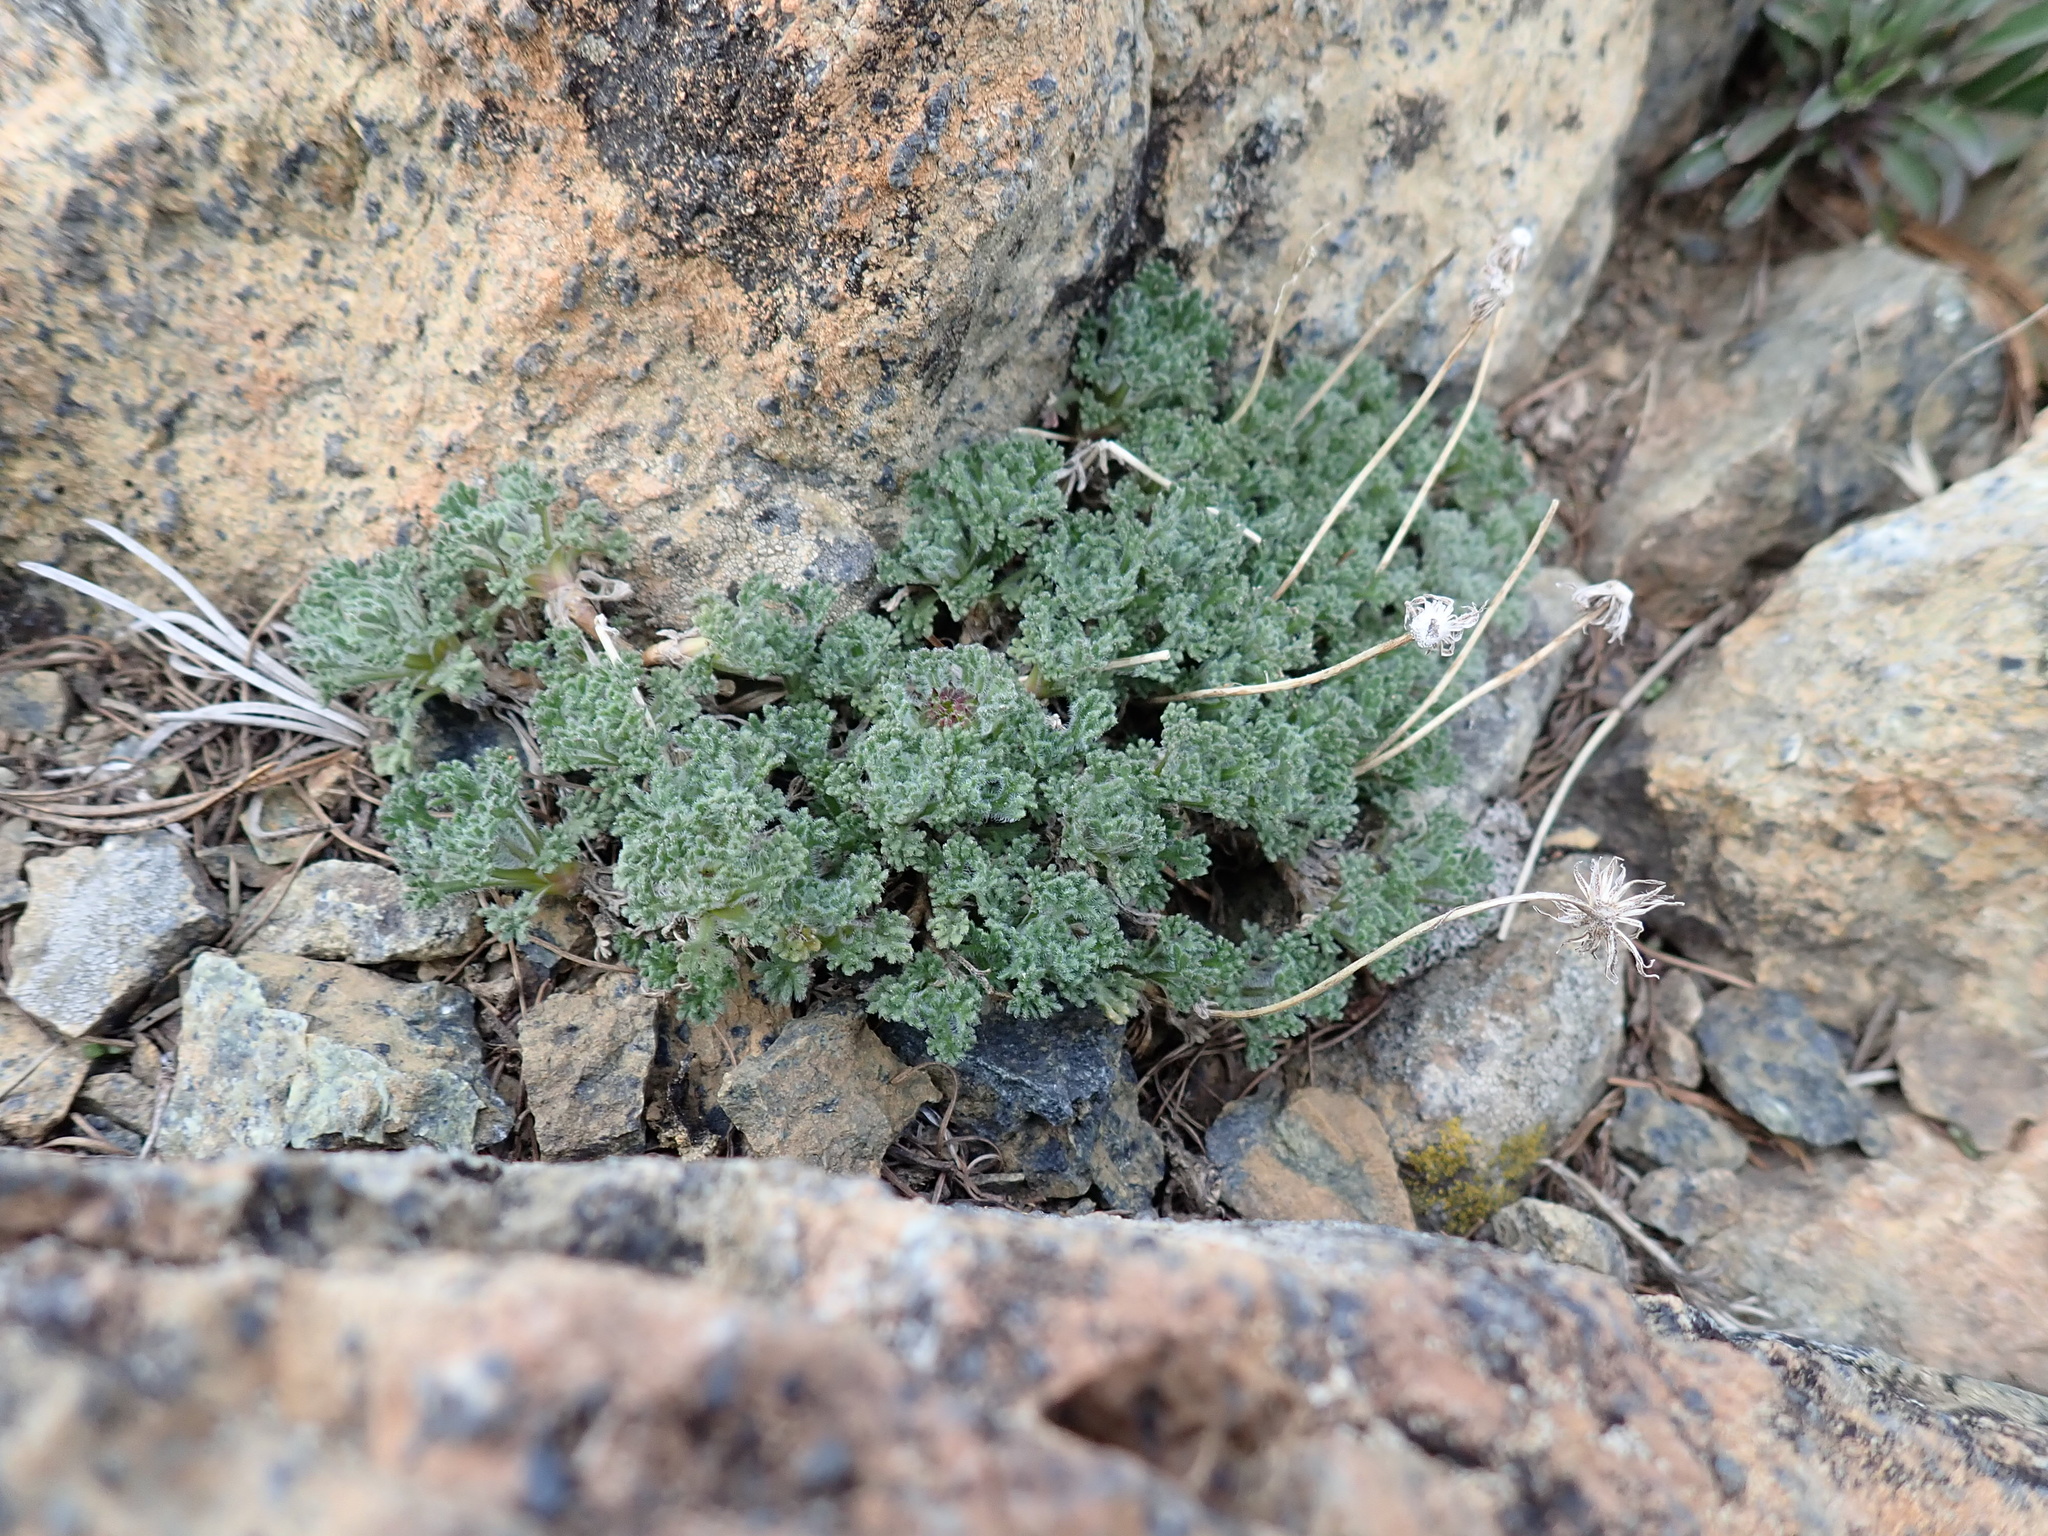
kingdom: Plantae
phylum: Tracheophyta
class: Magnoliopsida
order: Asterales
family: Asteraceae
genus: Erigeron
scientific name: Erigeron compositus
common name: Dwarf mountain fleabane
